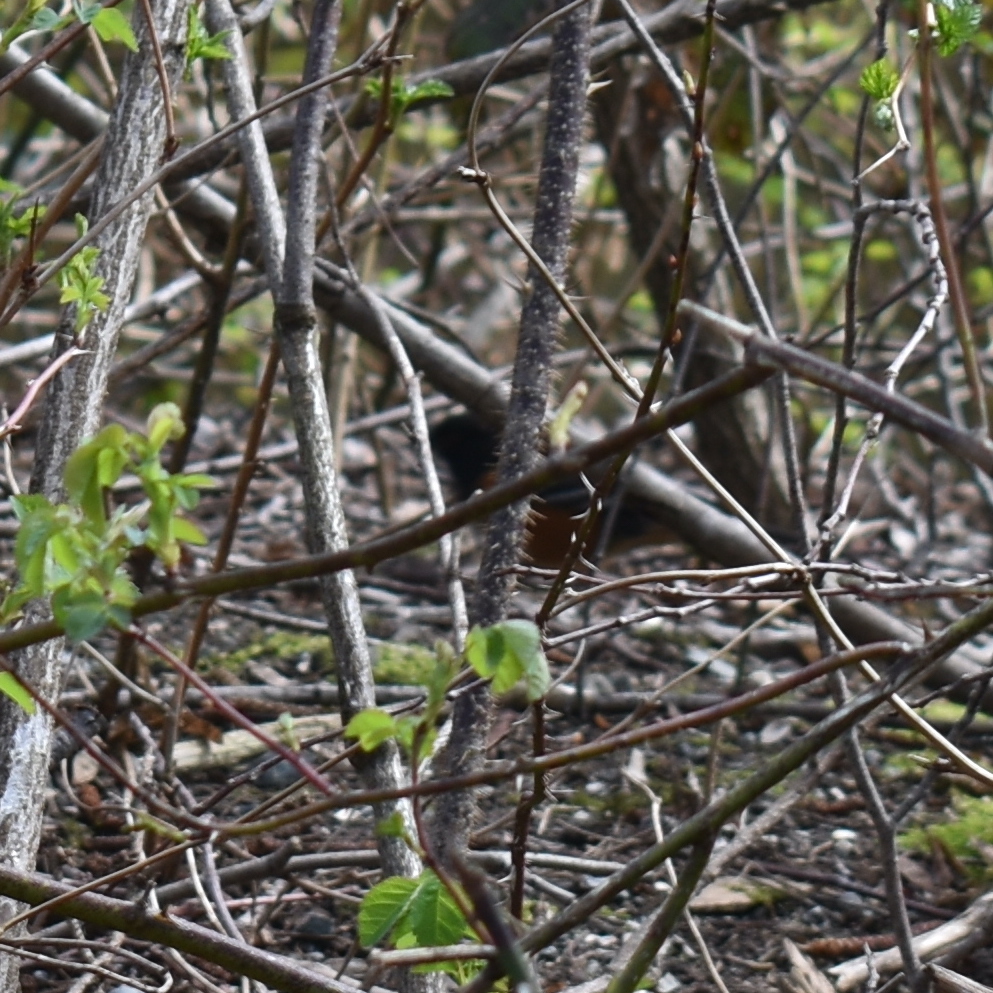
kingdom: Animalia
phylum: Chordata
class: Aves
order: Passeriformes
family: Passerellidae
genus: Pipilo
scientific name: Pipilo maculatus
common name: Spotted towhee
